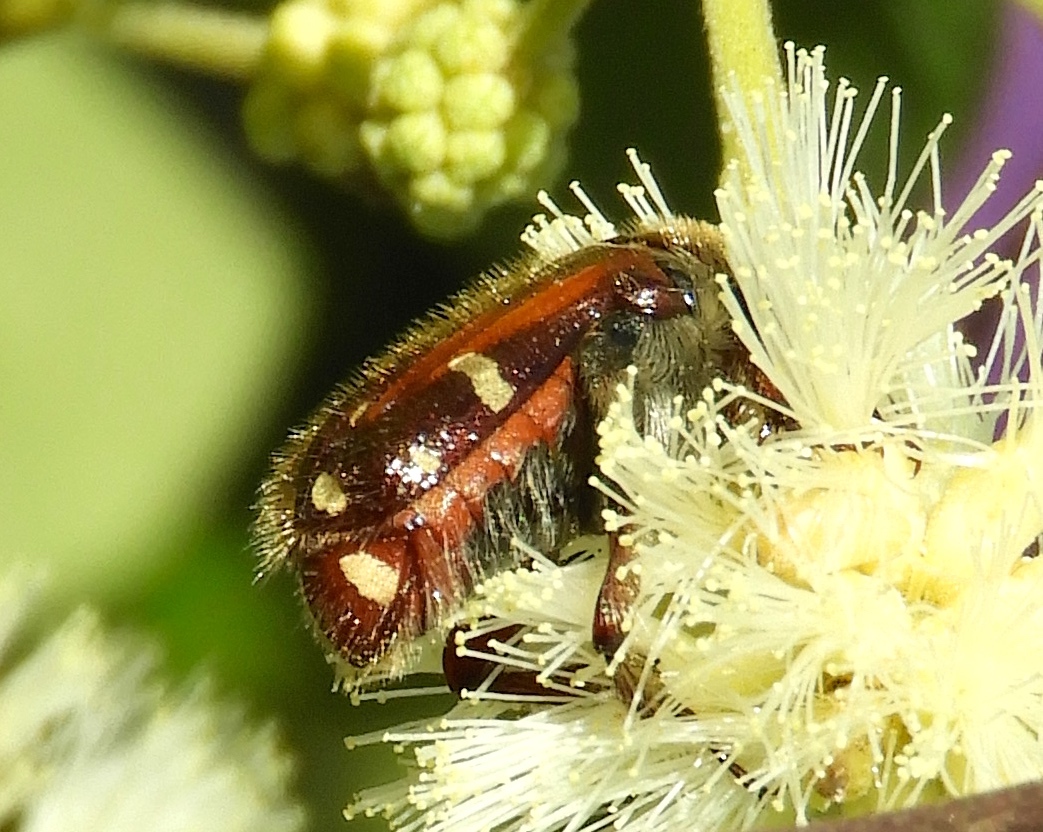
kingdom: Animalia
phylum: Arthropoda
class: Insecta
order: Coleoptera
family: Scarabaeidae
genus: Euphoria
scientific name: Euphoria pulchella
